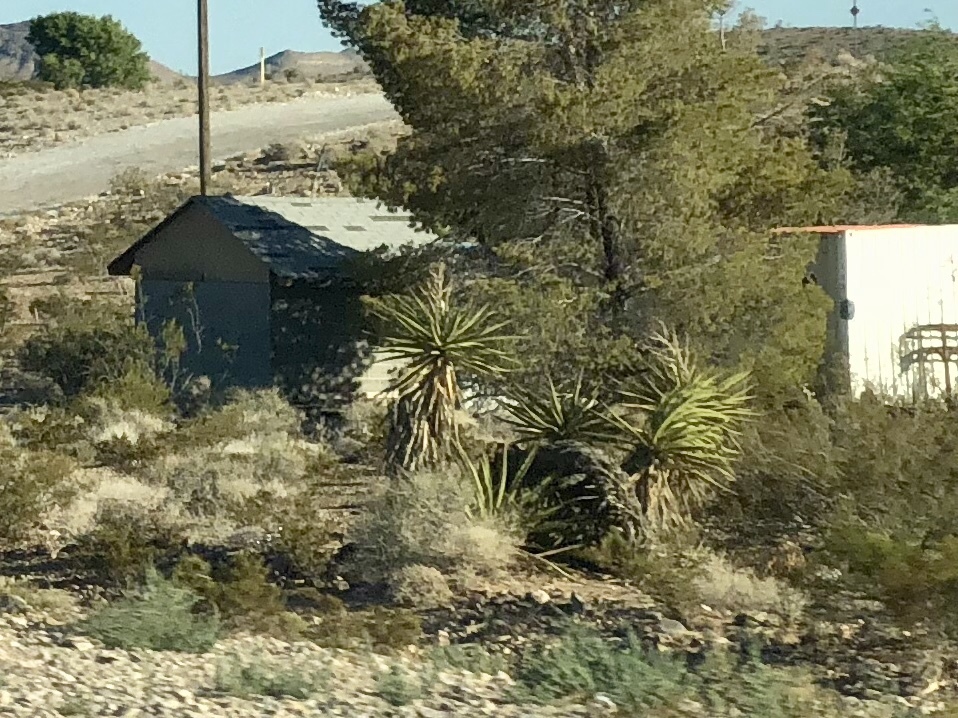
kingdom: Plantae
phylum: Tracheophyta
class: Liliopsida
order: Asparagales
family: Asparagaceae
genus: Yucca
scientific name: Yucca schidigera
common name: Mojave yucca
